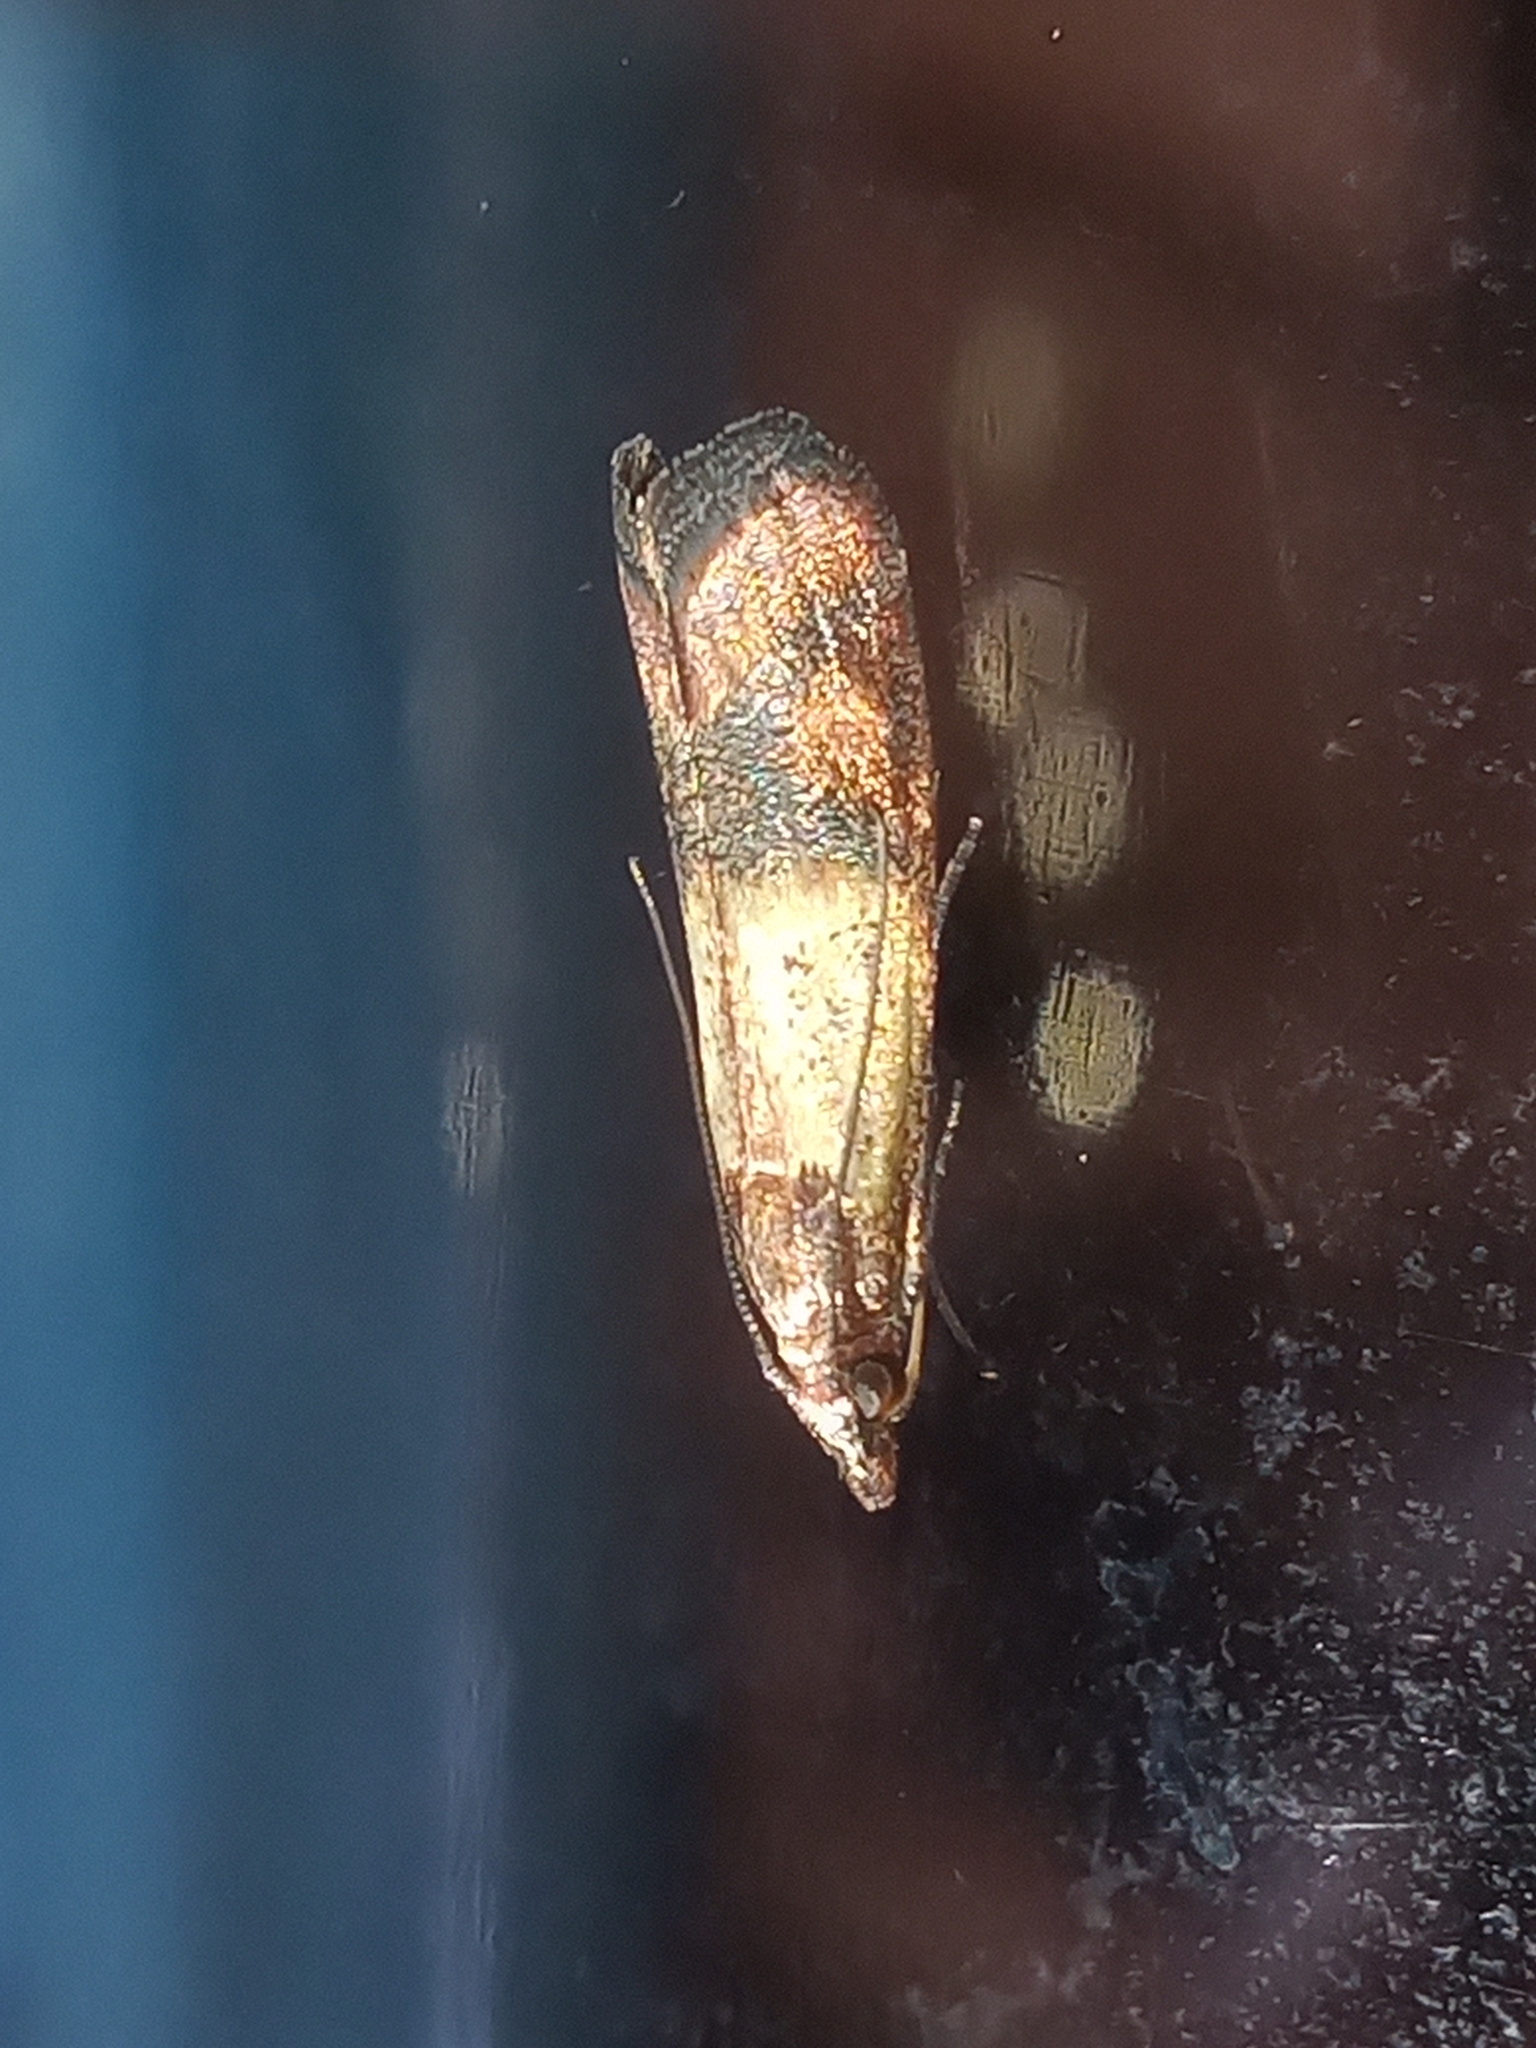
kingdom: Animalia
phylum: Arthropoda
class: Insecta
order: Lepidoptera
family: Pyralidae
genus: Plodia
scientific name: Plodia interpunctella
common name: Indian meal moth
